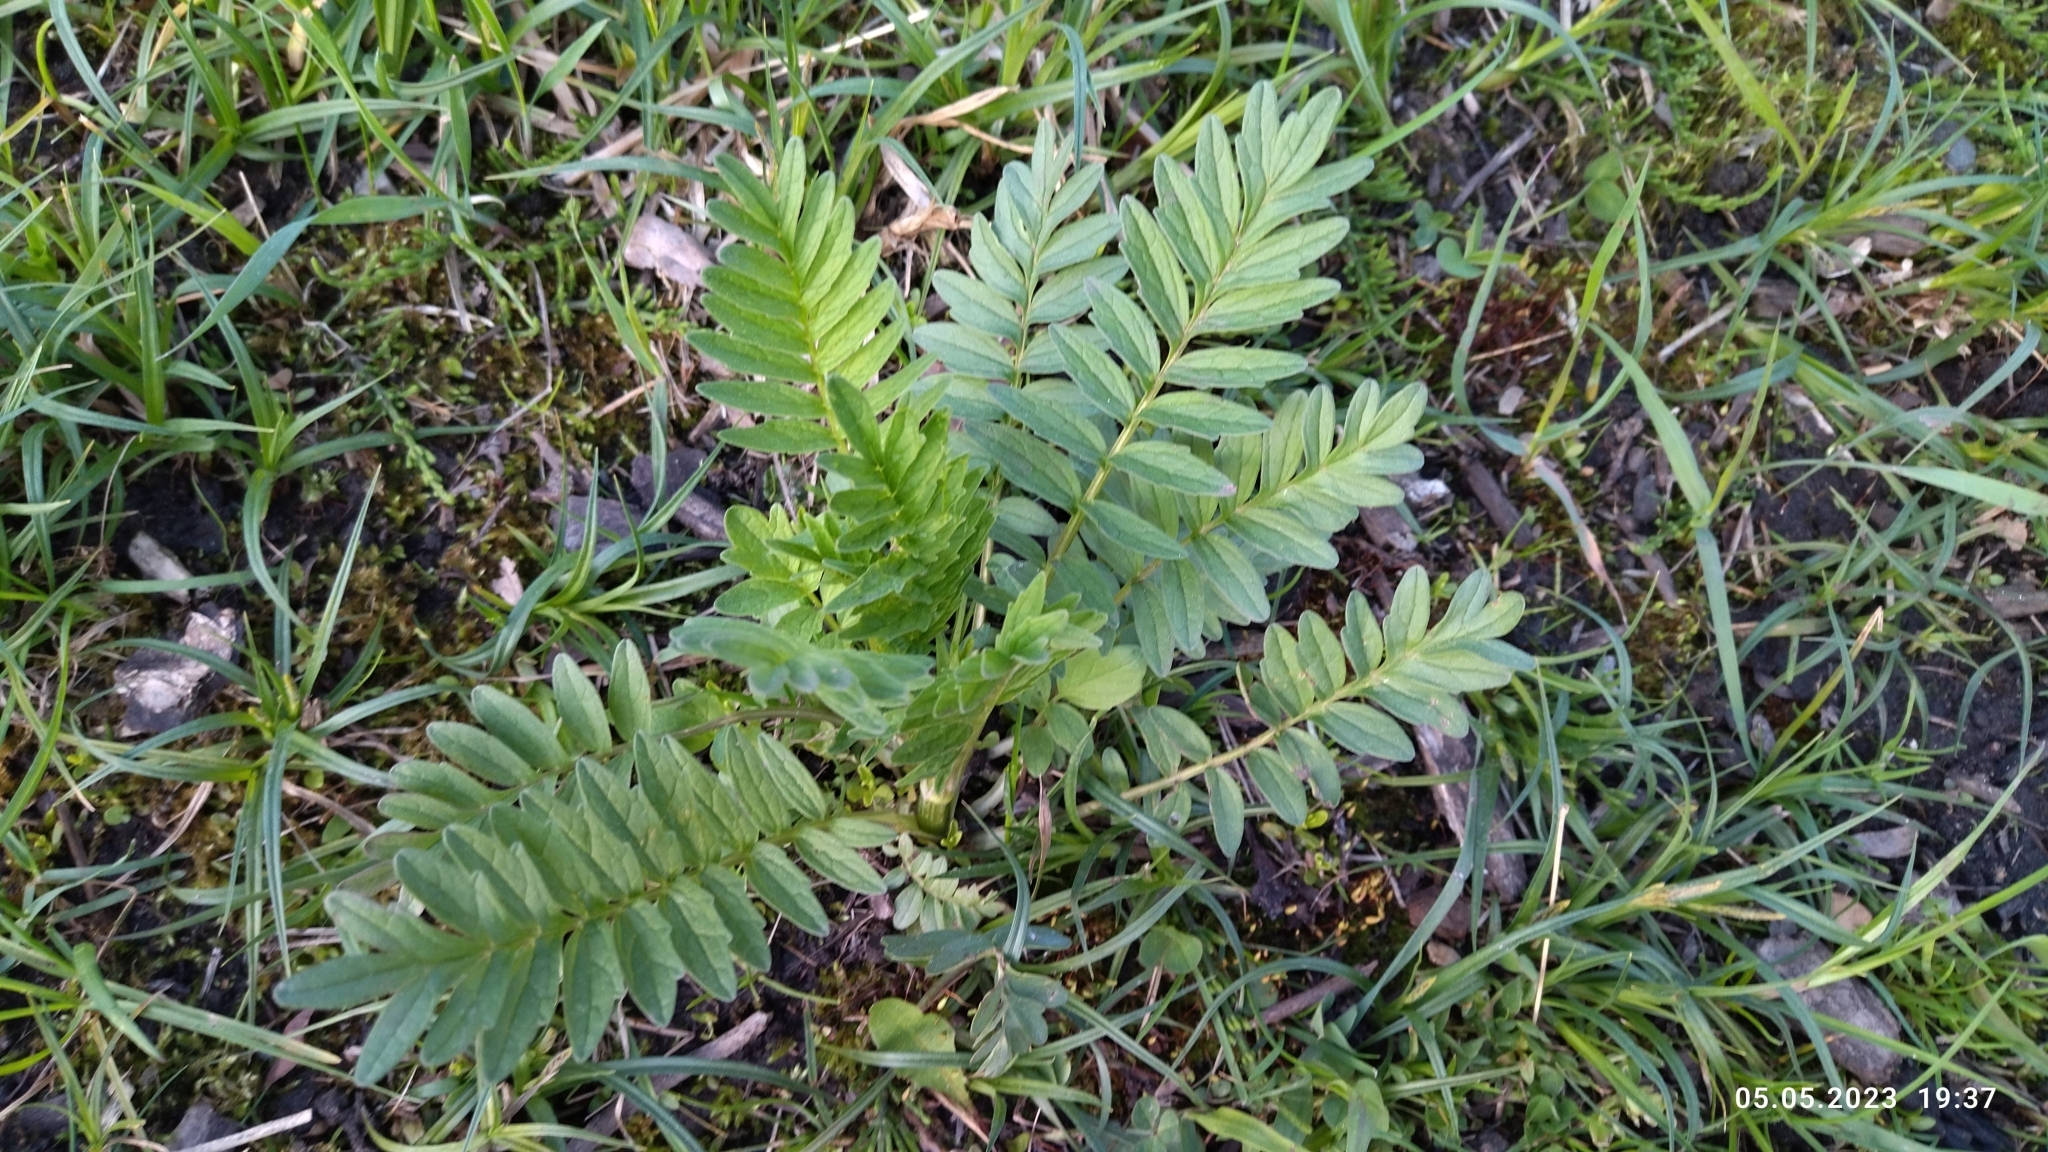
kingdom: Plantae
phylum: Tracheophyta
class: Magnoliopsida
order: Dipsacales
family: Caprifoliaceae
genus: Valeriana
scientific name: Valeriana officinalis
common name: Common valerian
